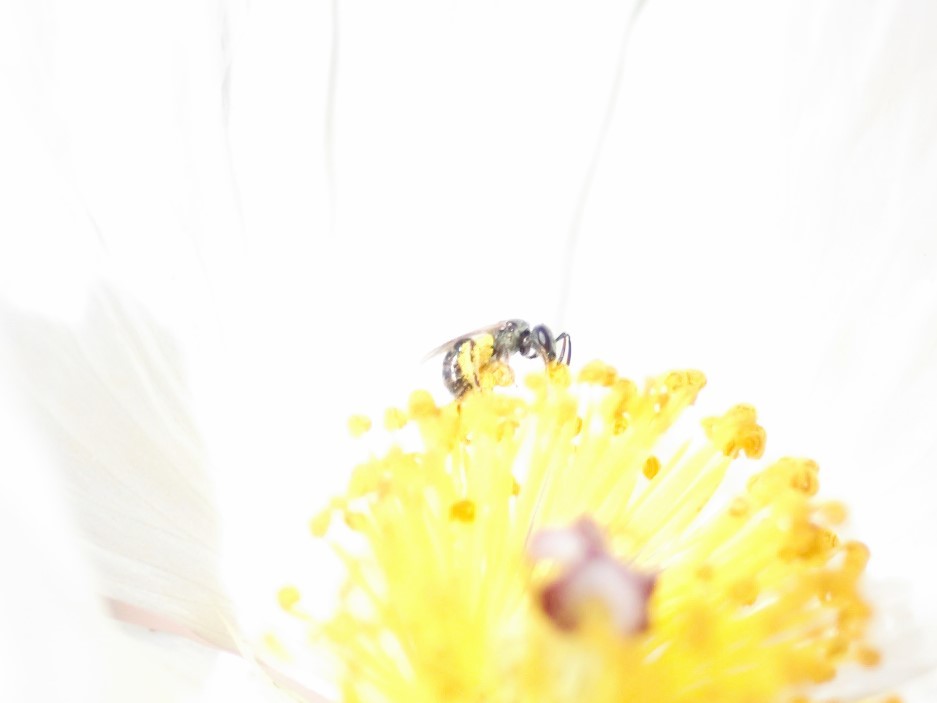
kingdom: Animalia
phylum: Arthropoda
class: Insecta
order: Hymenoptera
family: Halictidae
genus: Dialictus
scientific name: Dialictus
